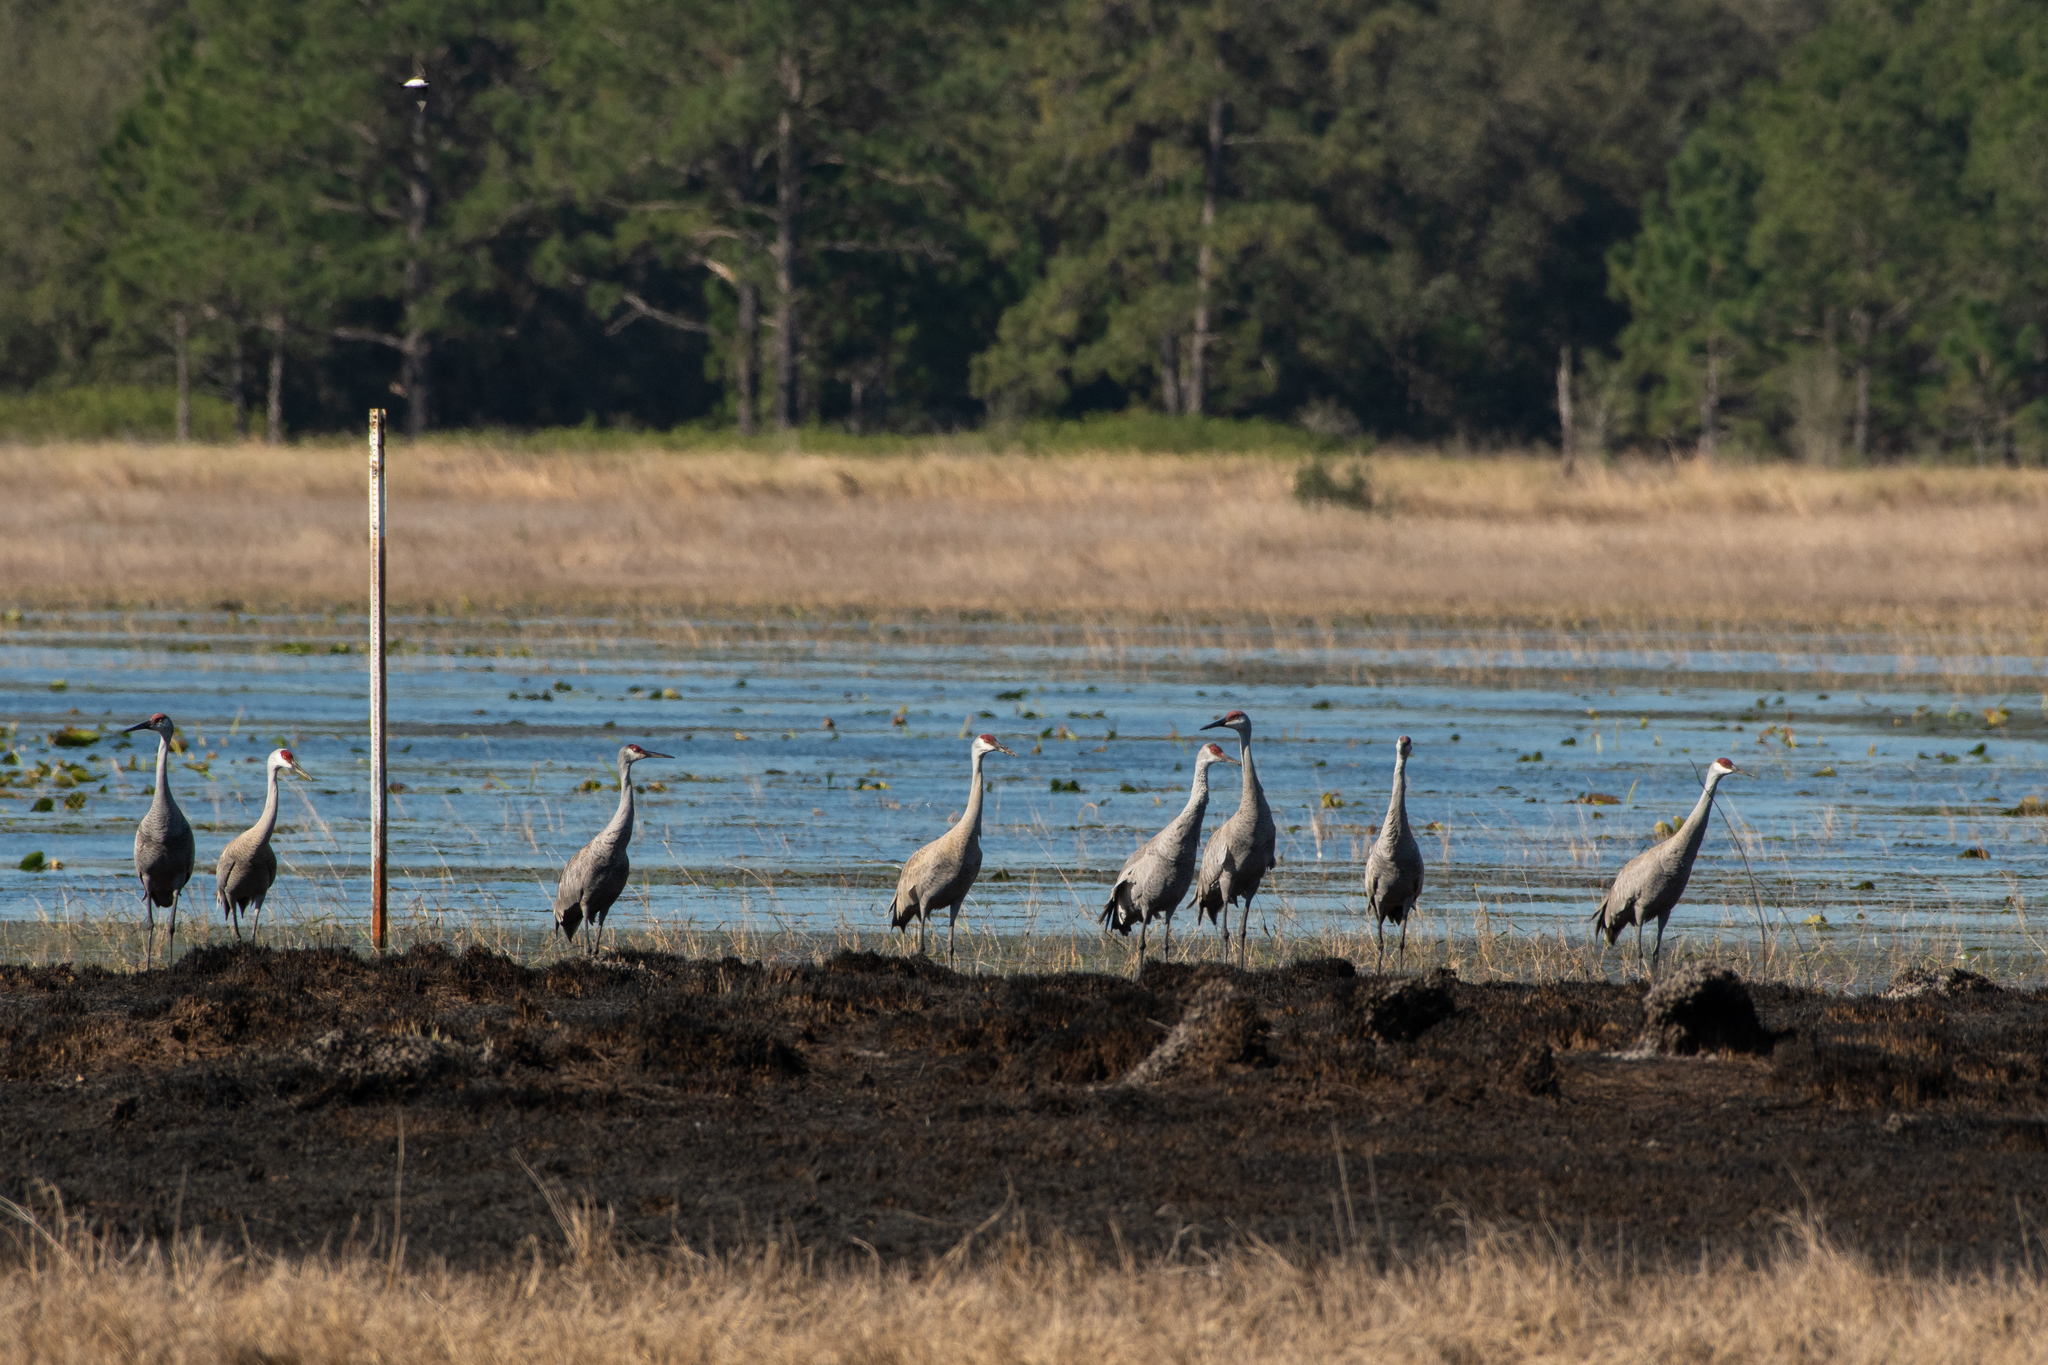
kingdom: Animalia
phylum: Chordata
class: Aves
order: Gruiformes
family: Gruidae
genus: Grus
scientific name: Grus canadensis
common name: Sandhill crane
